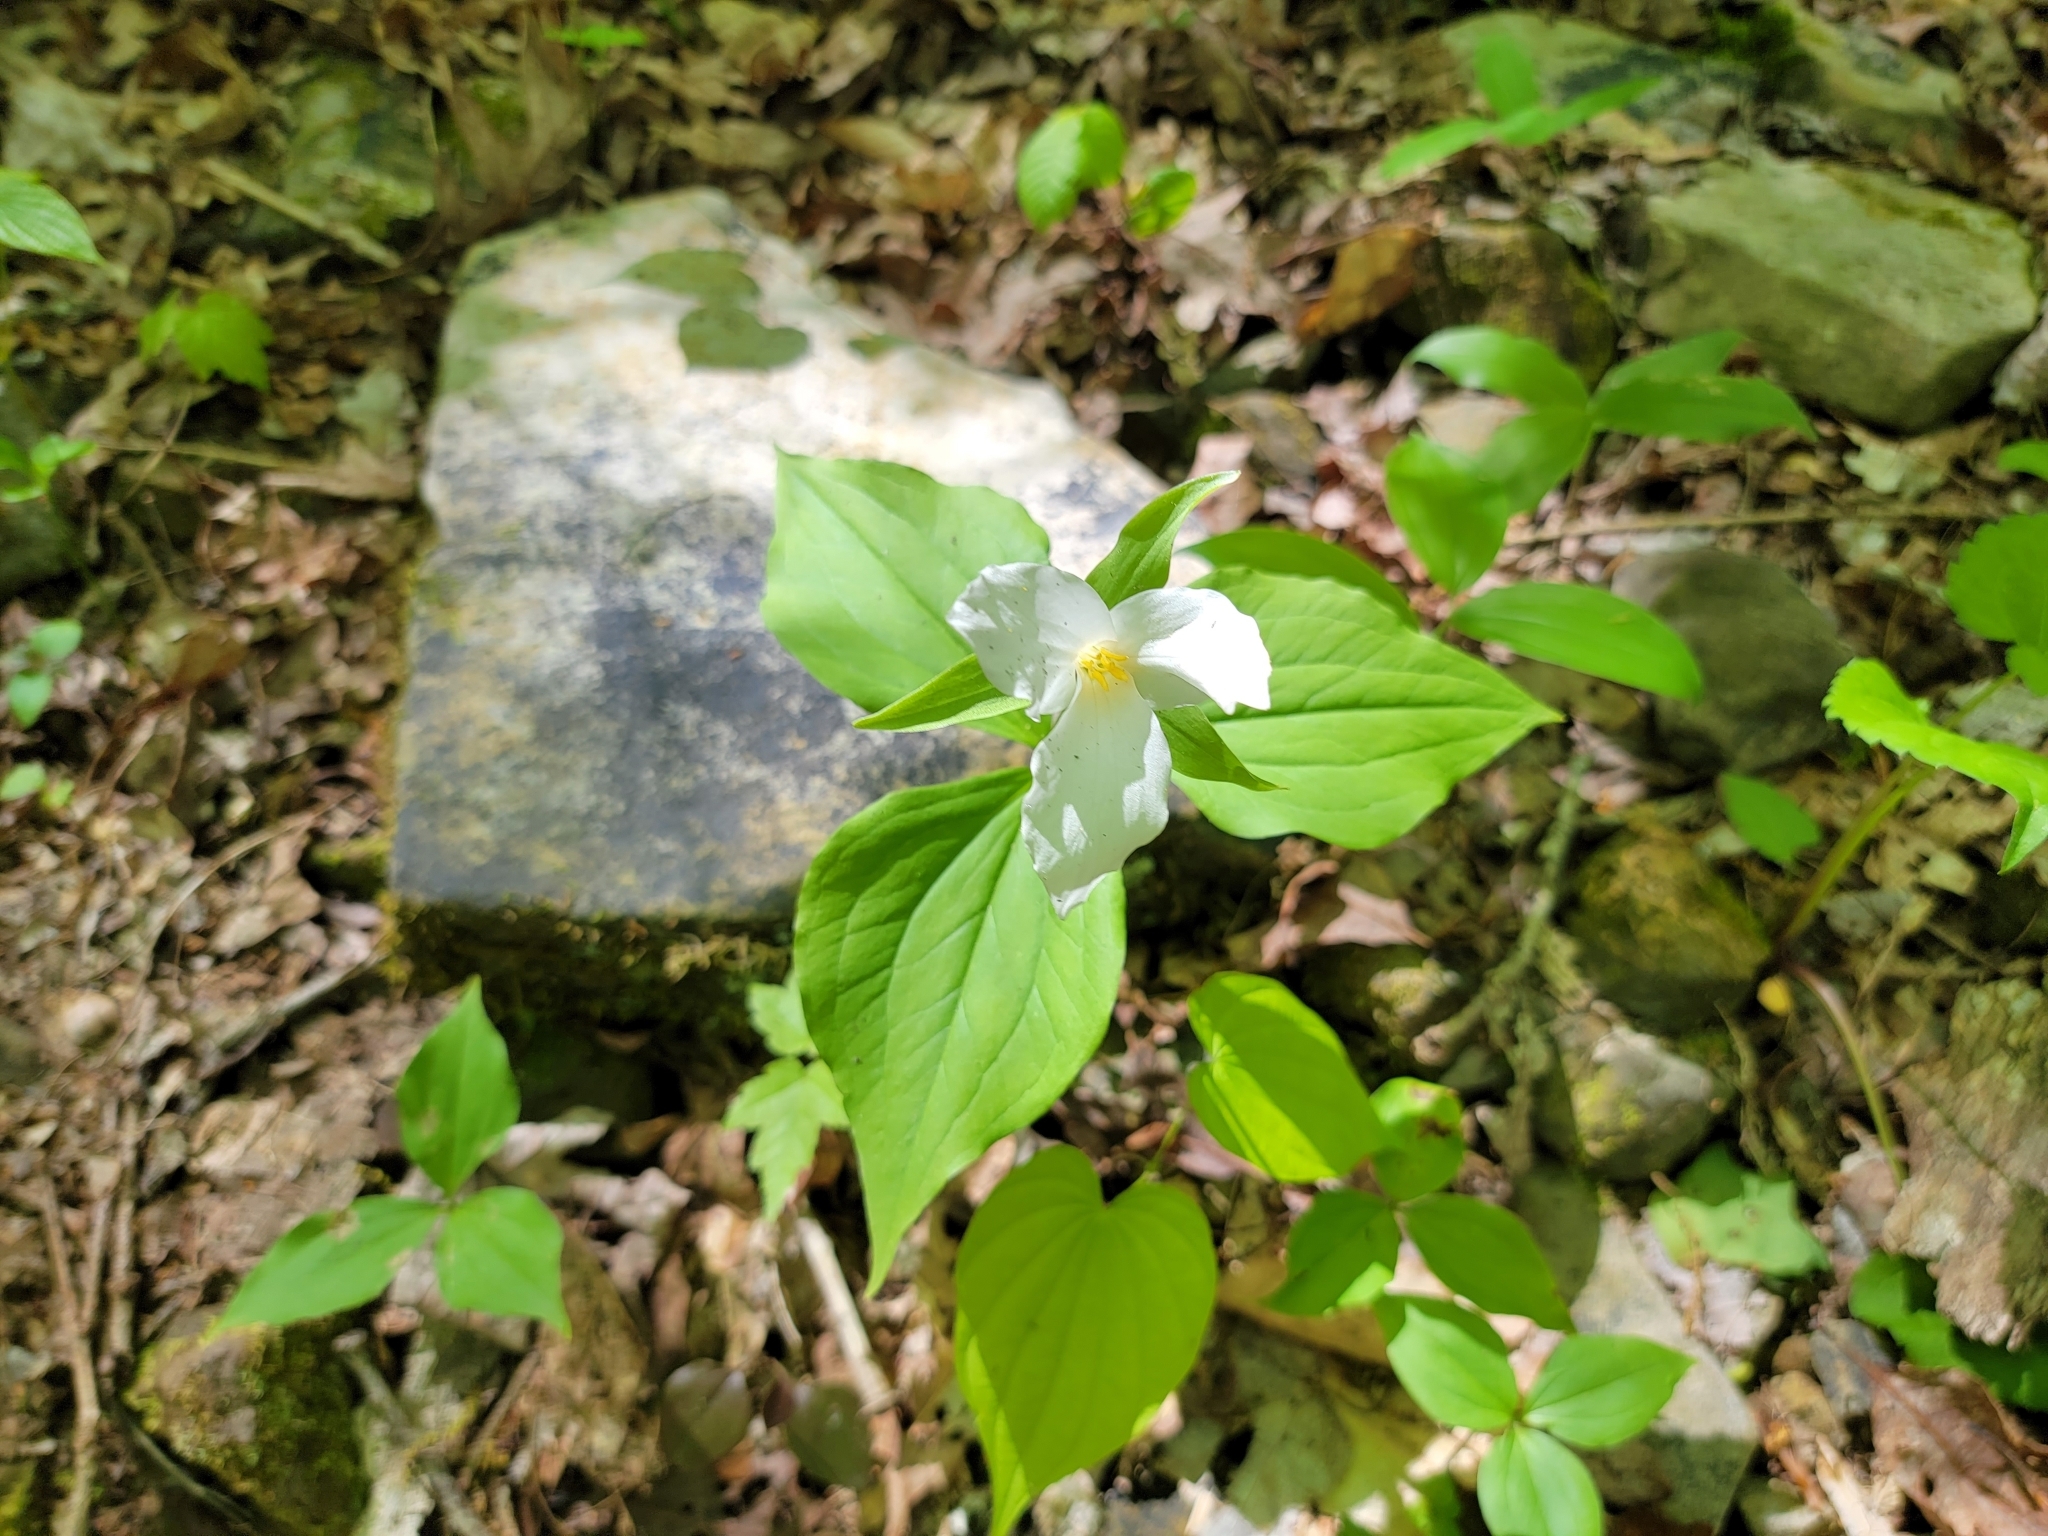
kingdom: Plantae
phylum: Tracheophyta
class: Liliopsida
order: Liliales
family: Melanthiaceae
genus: Trillium
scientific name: Trillium grandiflorum
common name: Great white trillium
